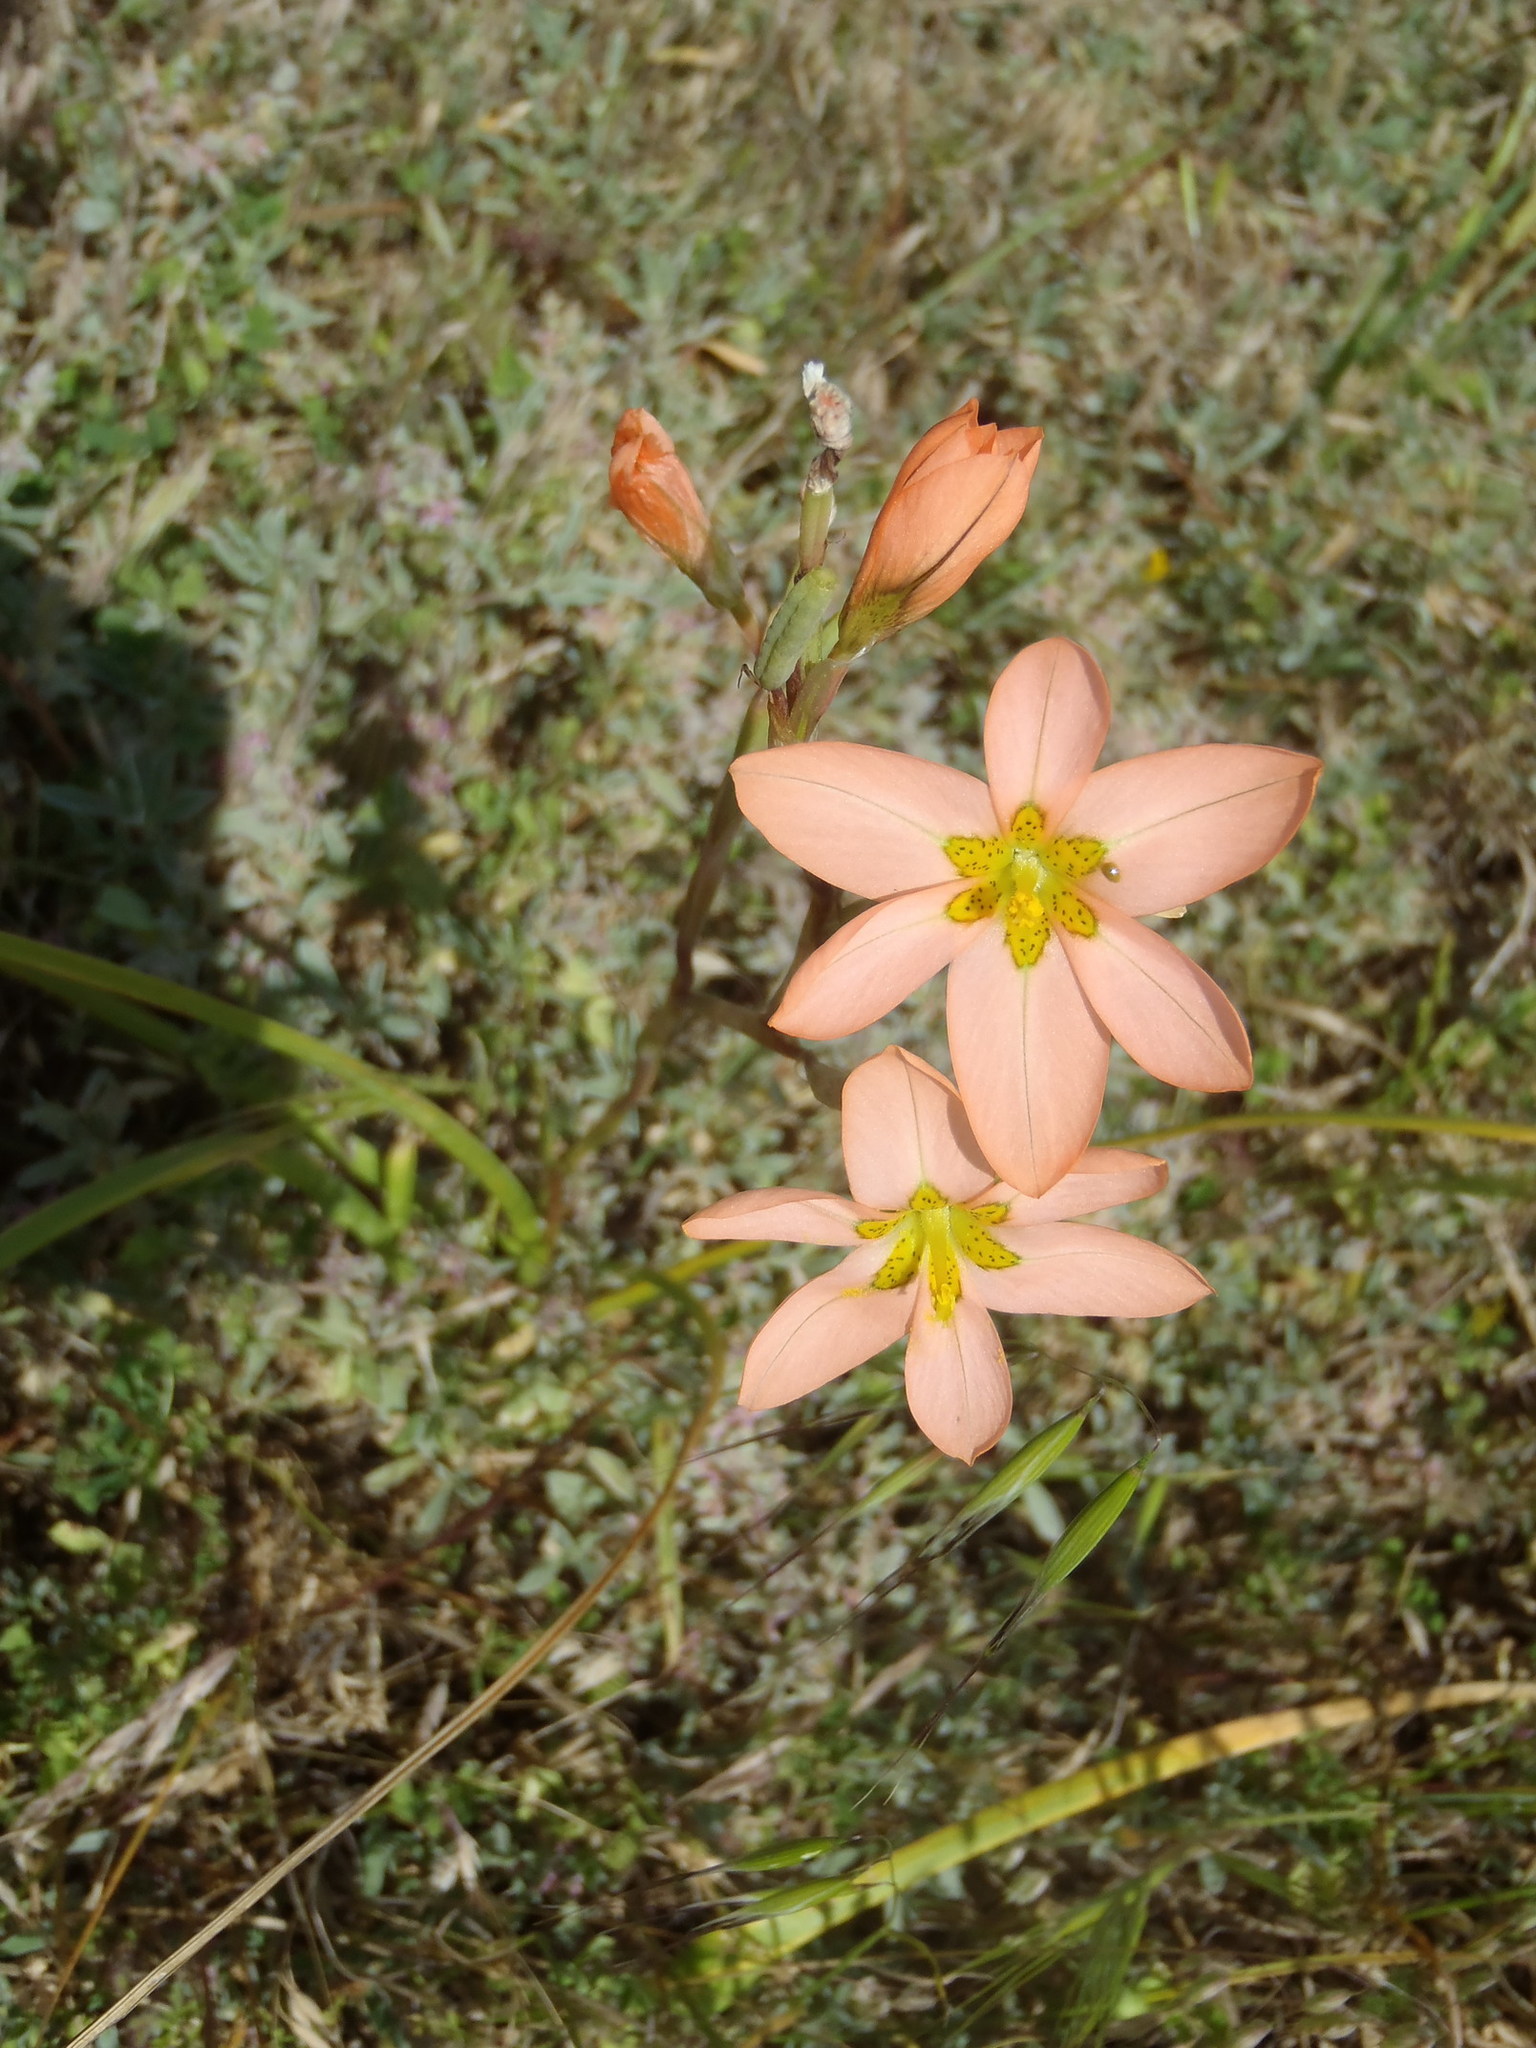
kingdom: Plantae
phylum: Tracheophyta
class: Liliopsida
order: Asparagales
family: Iridaceae
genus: Moraea
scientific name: Moraea miniata
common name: Two-leaf cape-tulip
